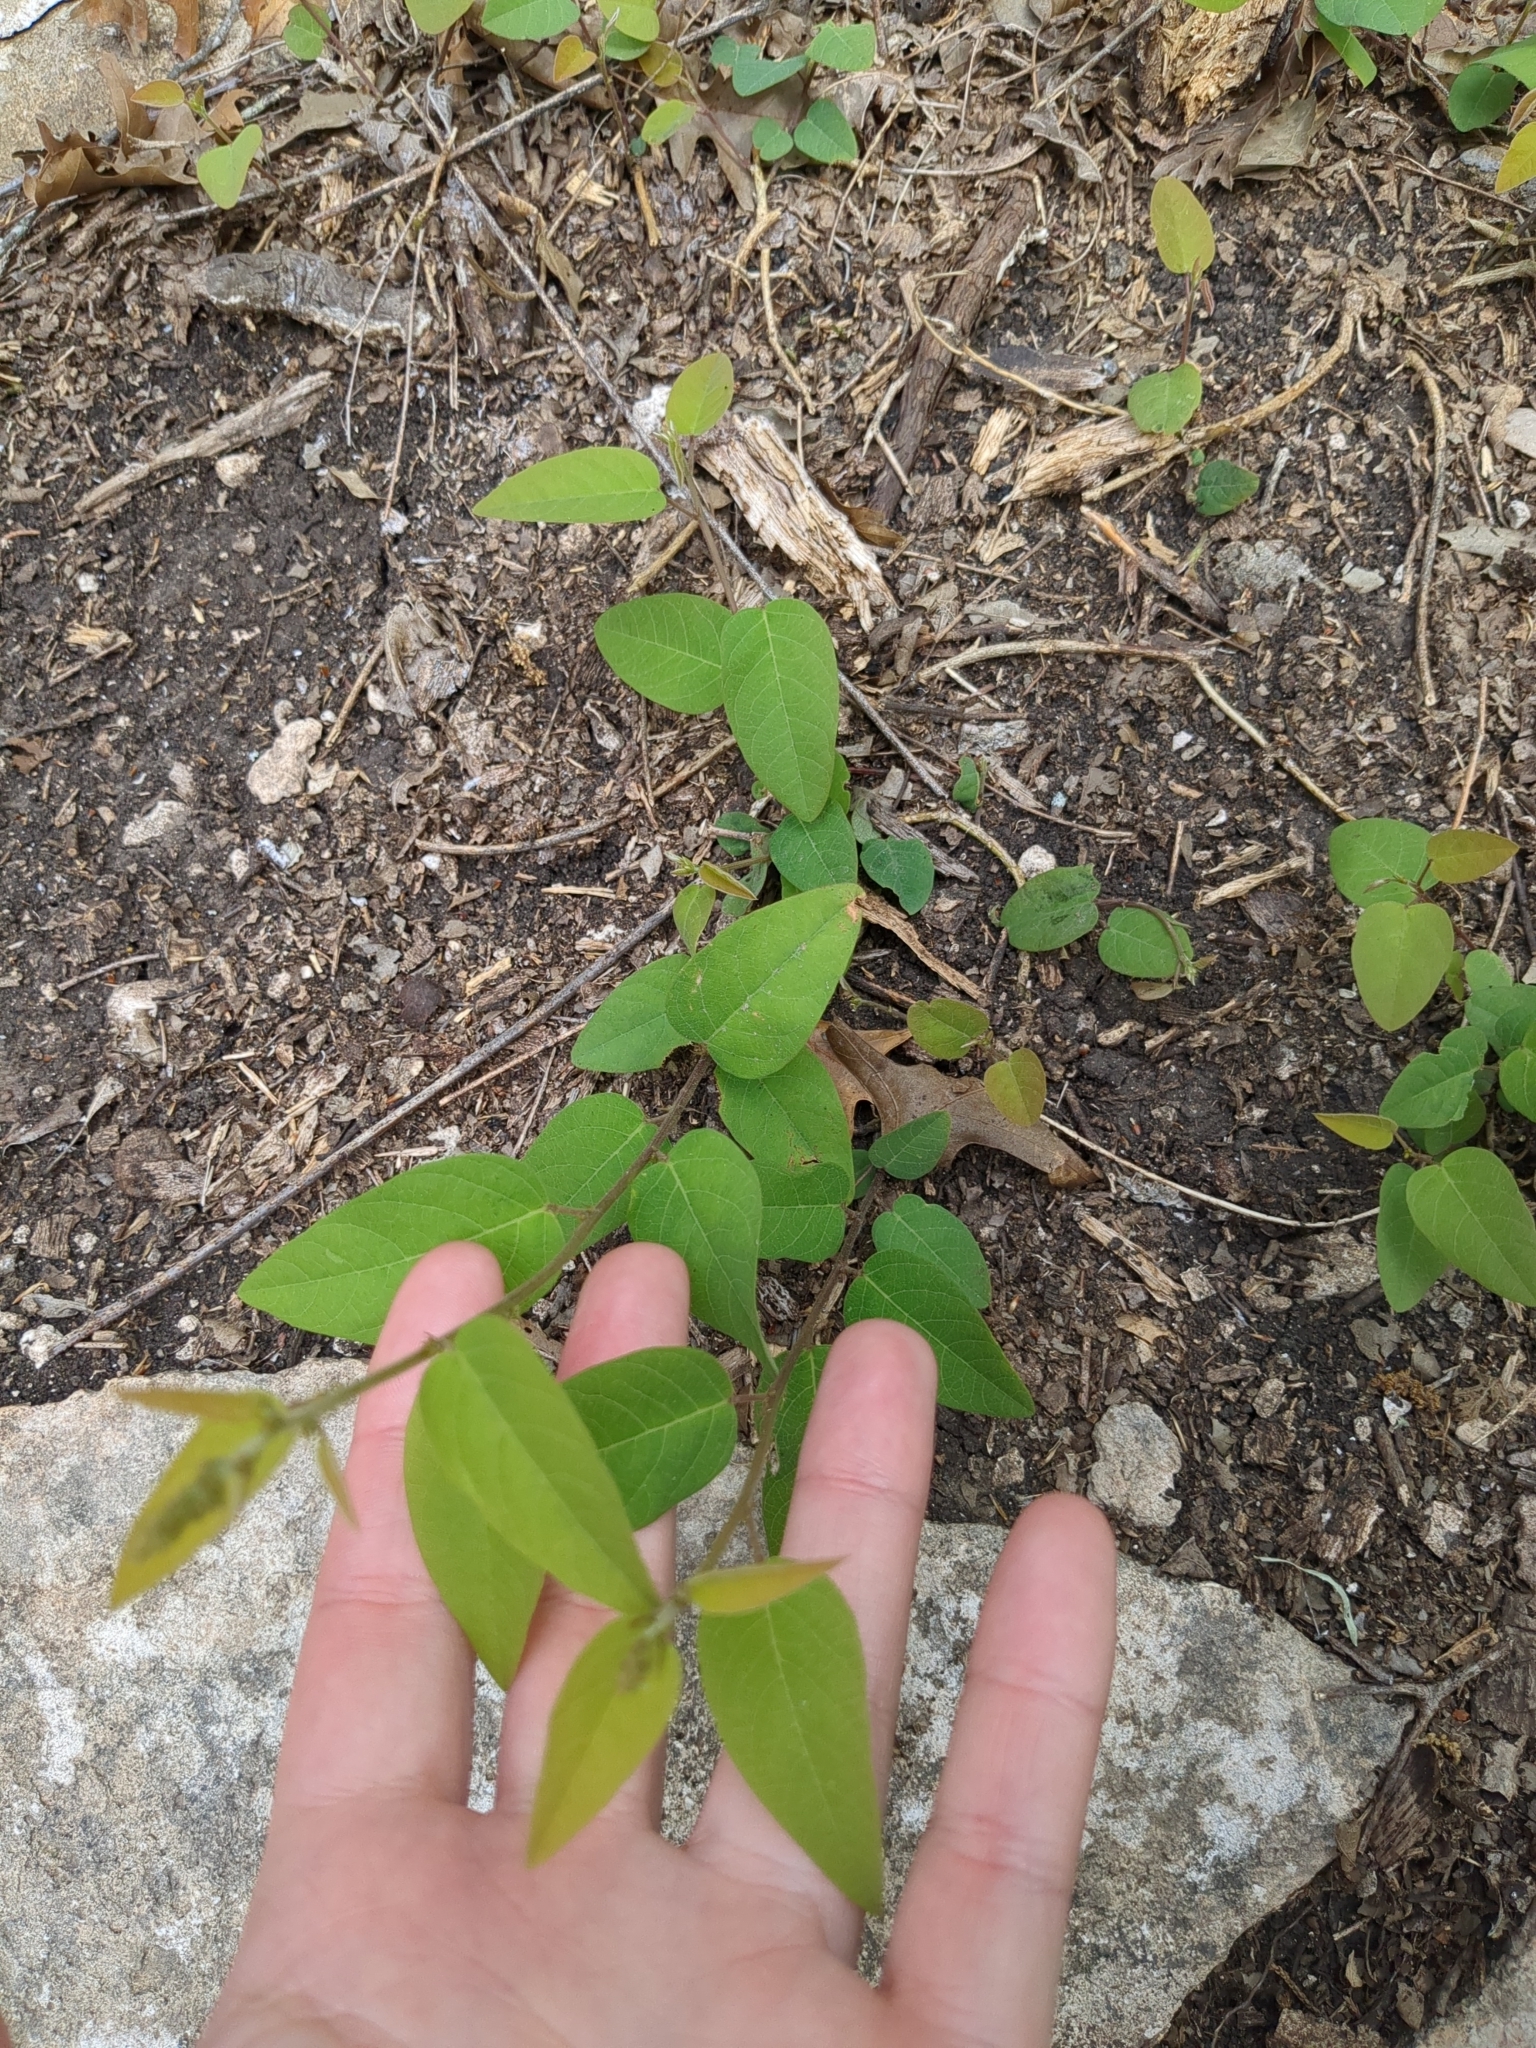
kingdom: Plantae
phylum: Tracheophyta
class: Magnoliopsida
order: Fabales
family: Fabaceae
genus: Desmodium
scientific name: Desmodium psilophyllum
